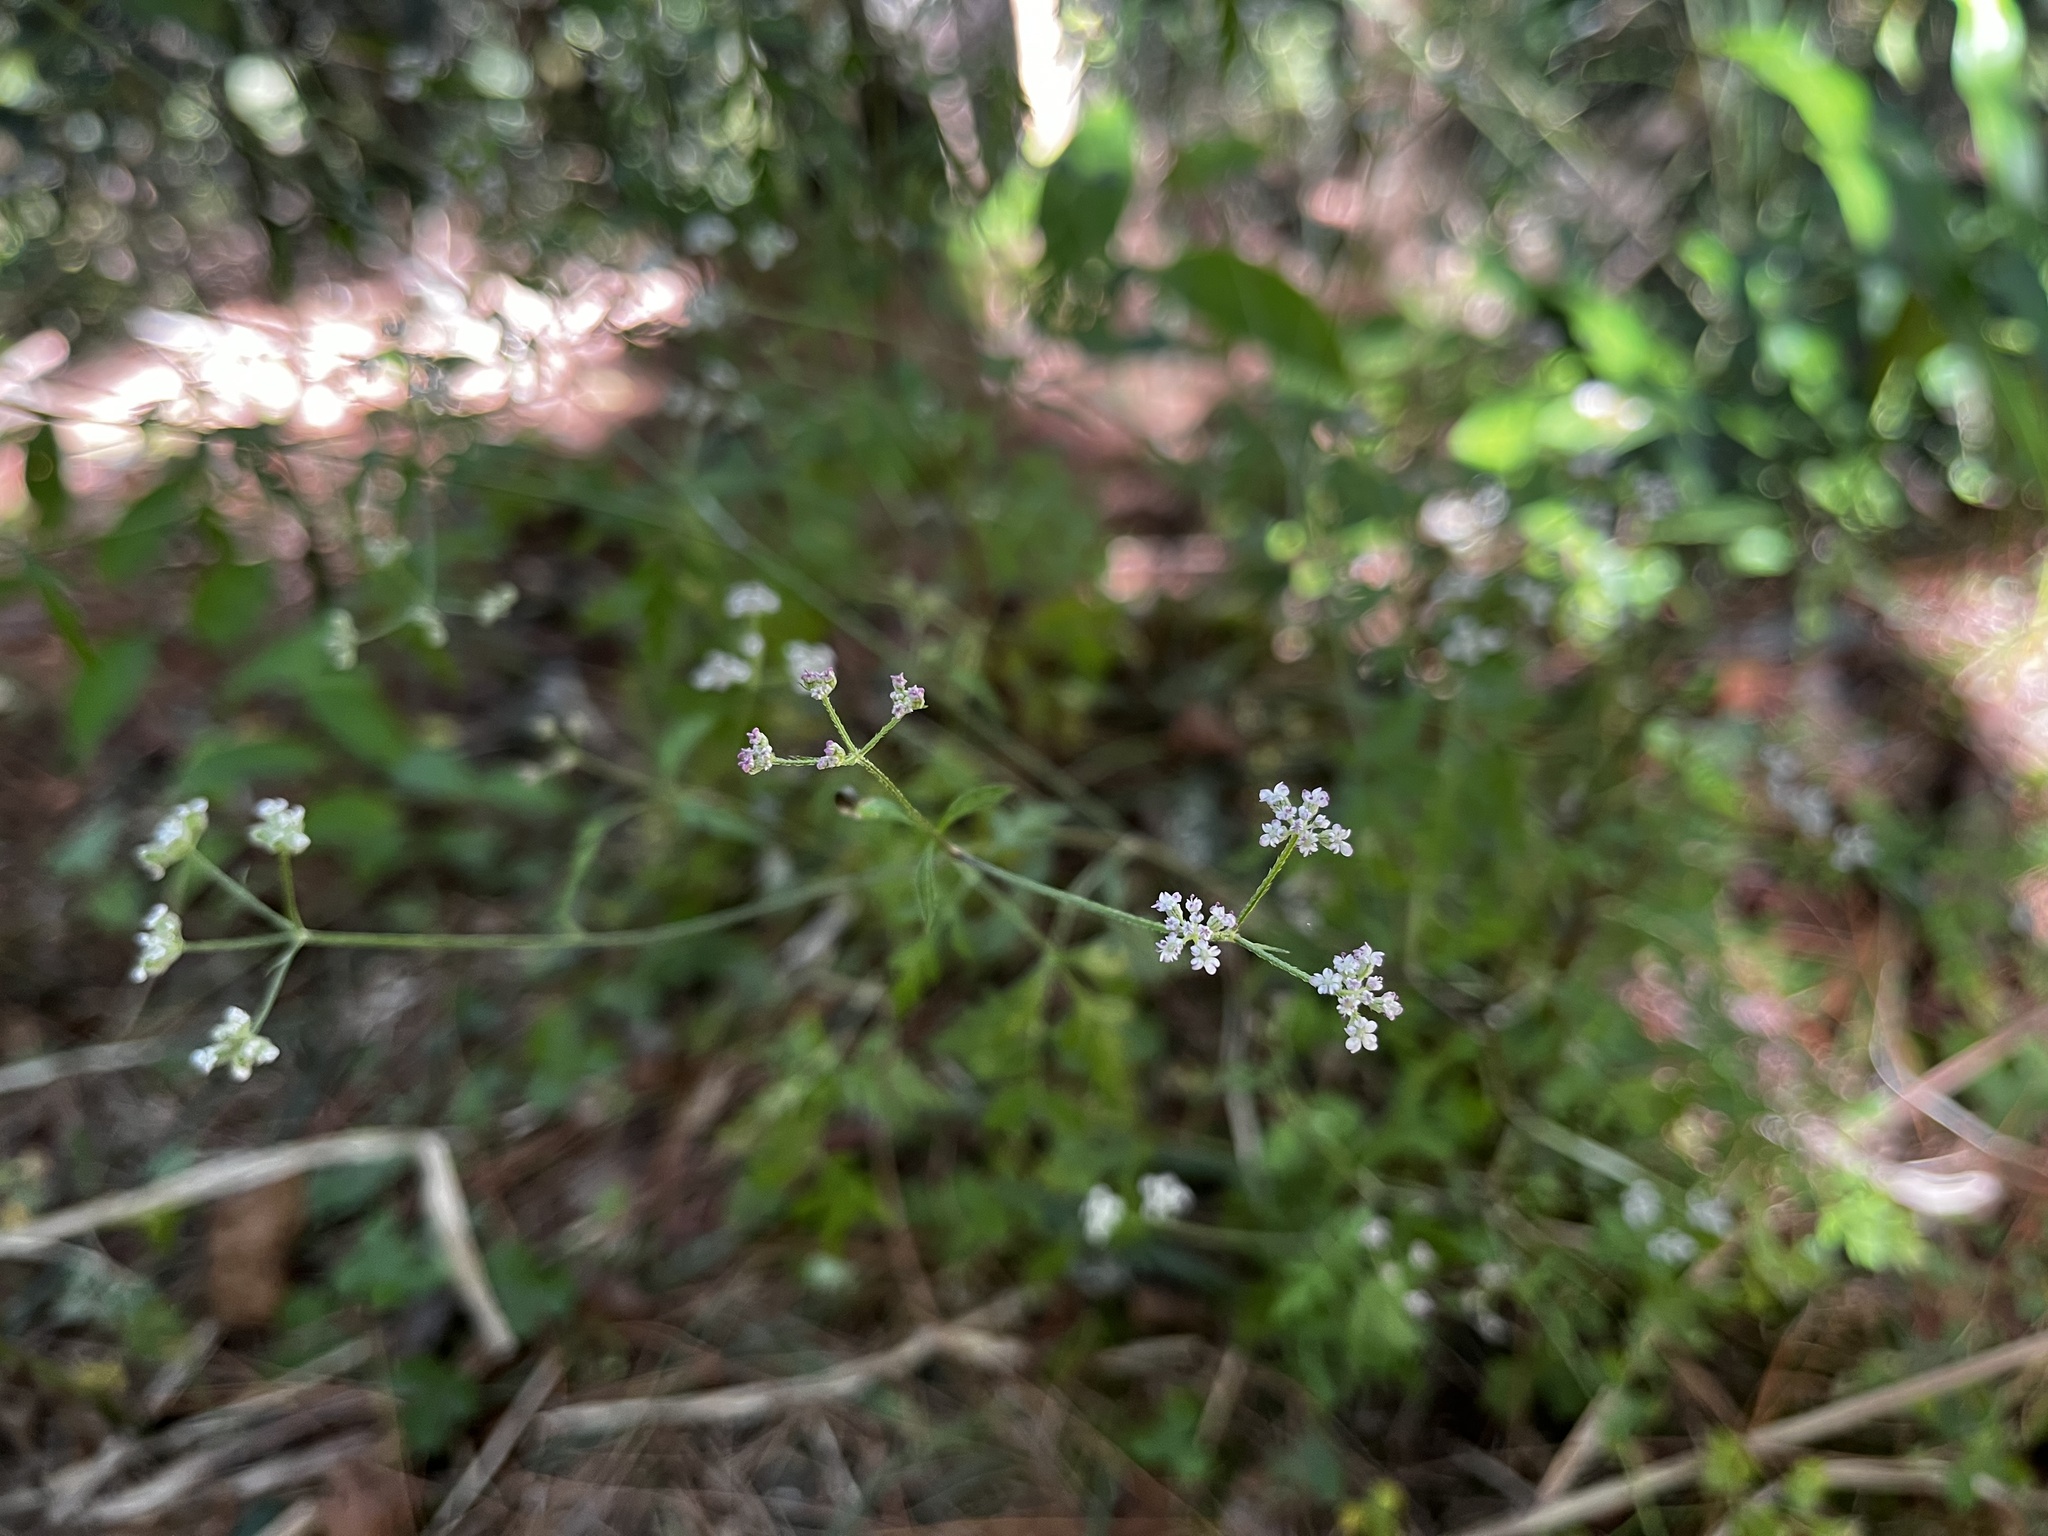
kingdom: Plantae
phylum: Tracheophyta
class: Magnoliopsida
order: Apiales
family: Apiaceae
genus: Torilis
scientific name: Torilis japonica
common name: Upright hedge-parsley
